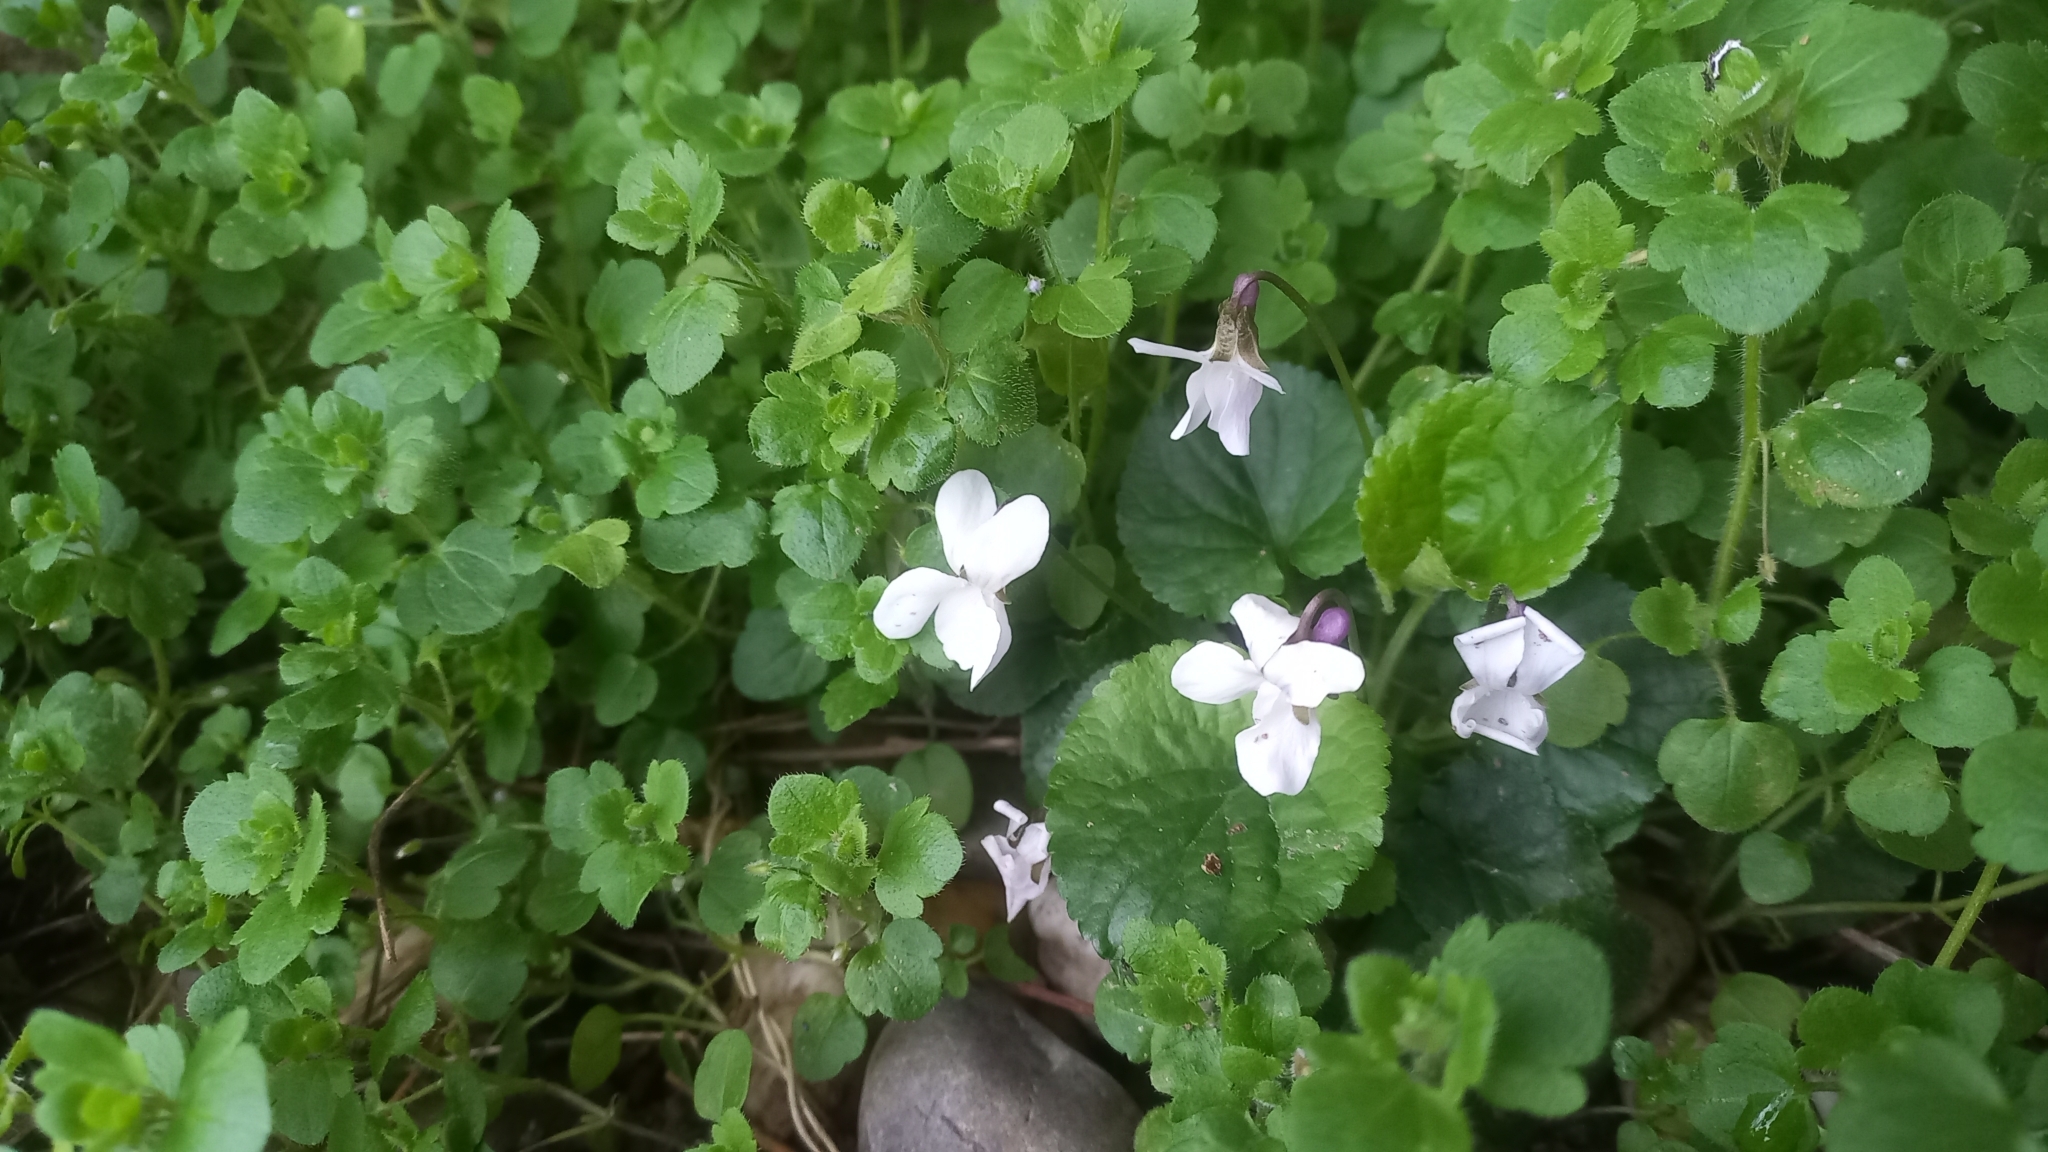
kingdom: Plantae
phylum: Tracheophyta
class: Magnoliopsida
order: Malpighiales
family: Violaceae
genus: Viola
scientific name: Viola odorata
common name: Sweet violet
